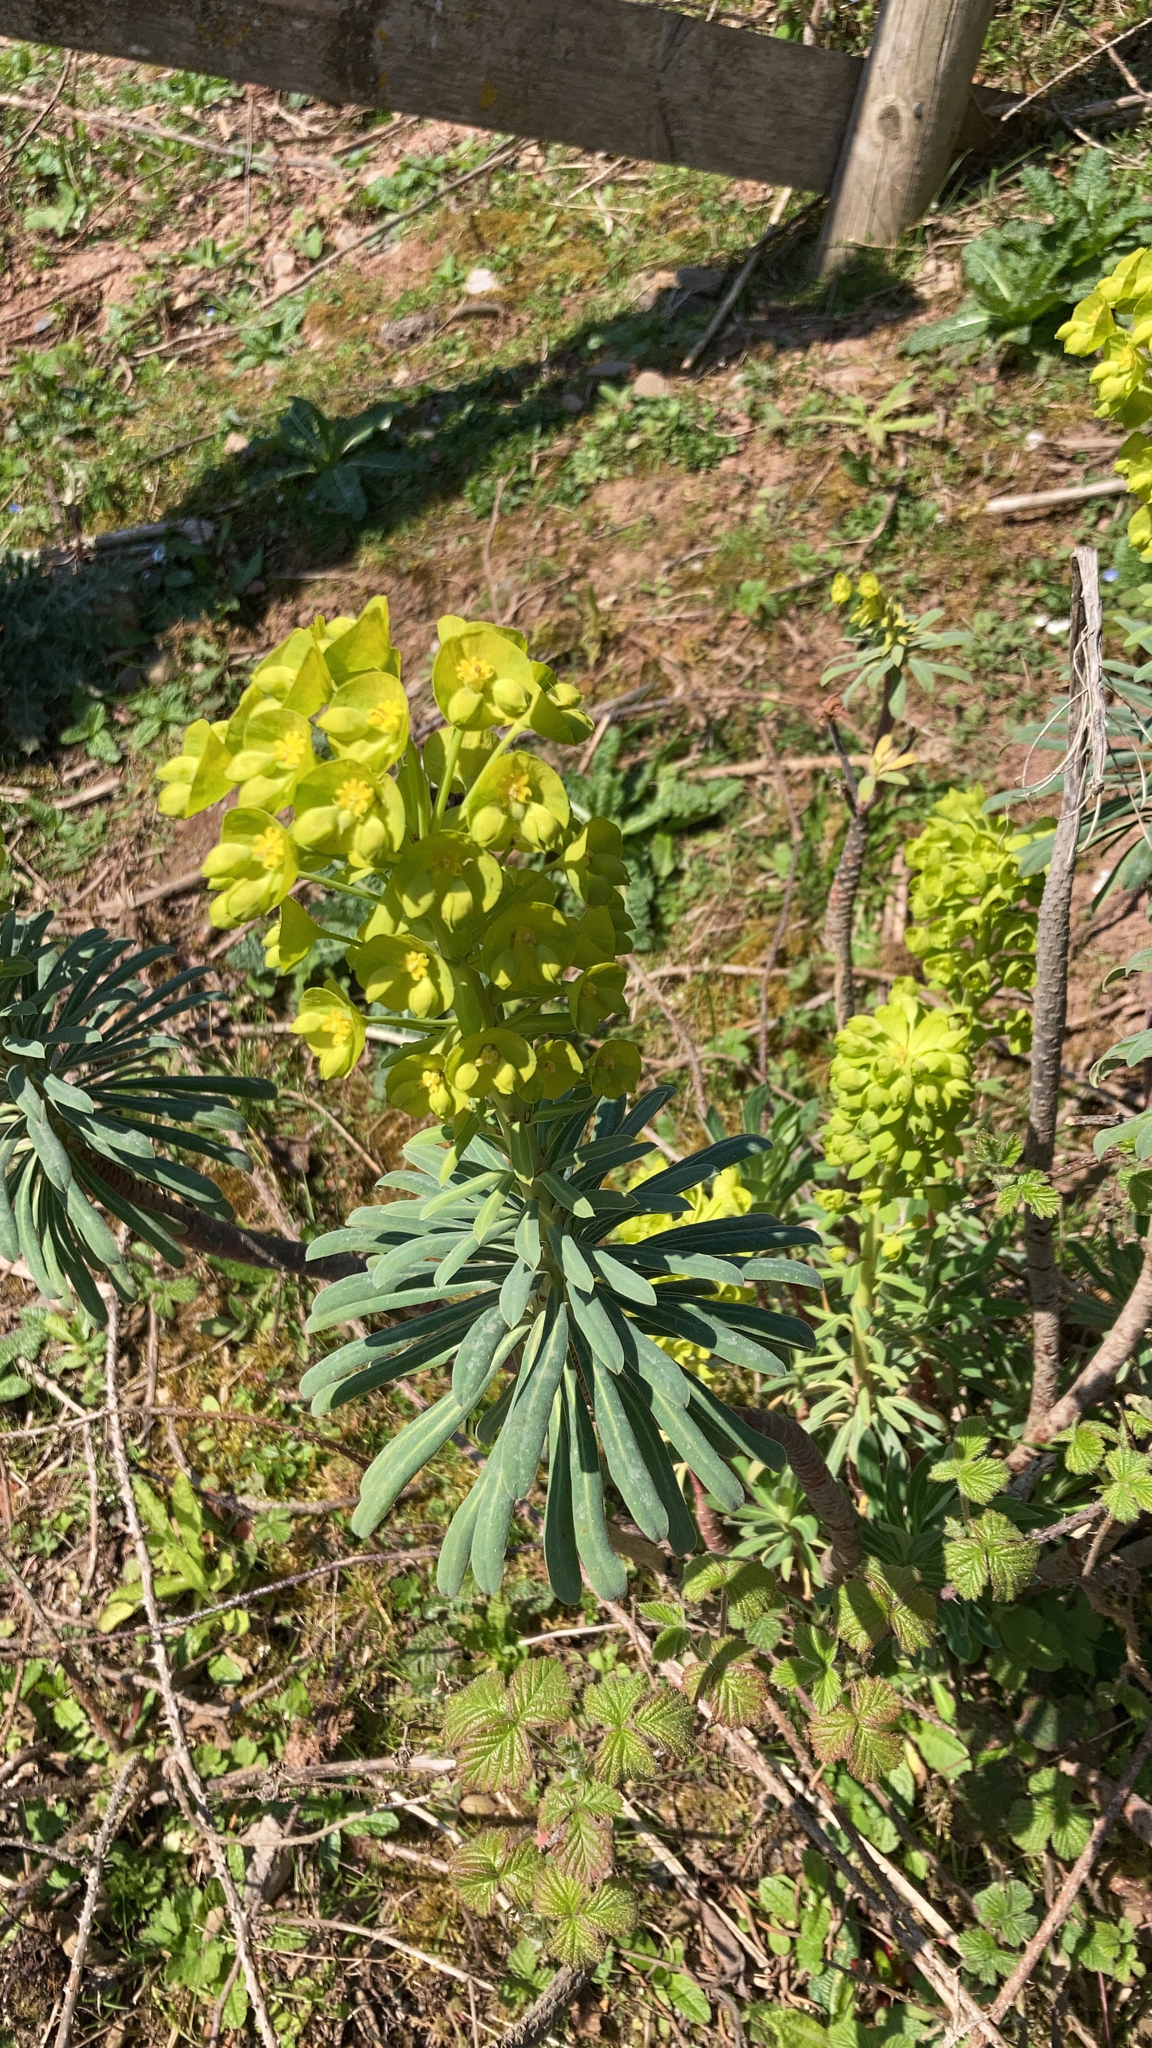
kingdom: Plantae
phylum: Tracheophyta
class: Magnoliopsida
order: Malpighiales
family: Euphorbiaceae
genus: Euphorbia
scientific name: Euphorbia characias
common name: Mediterranean spurge
